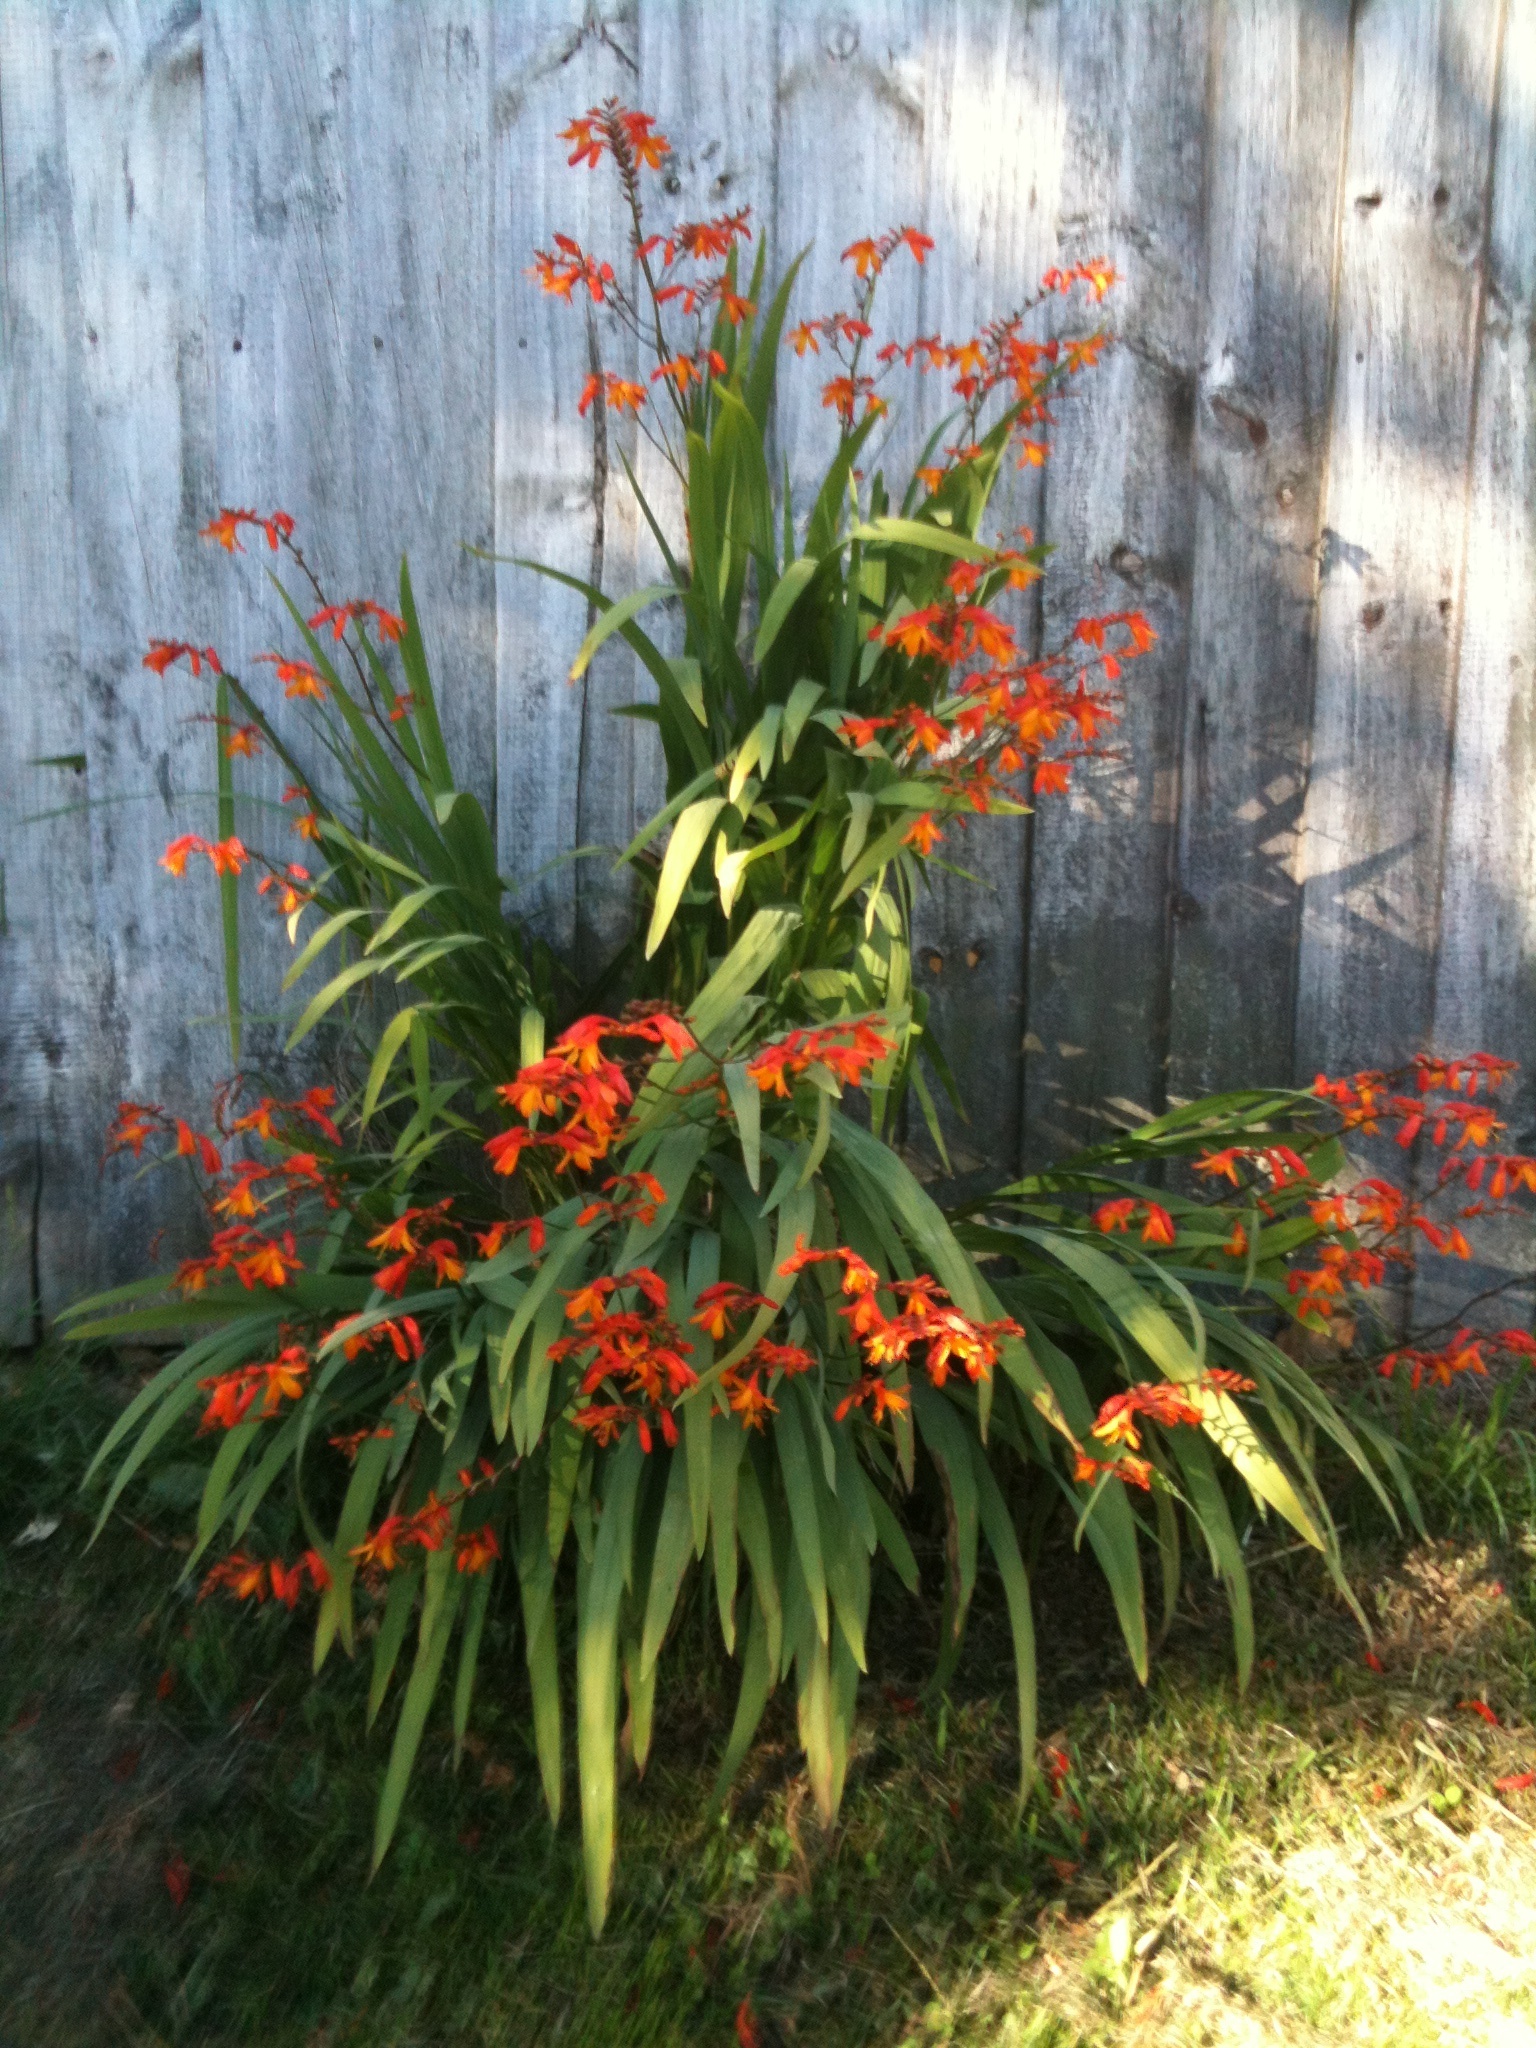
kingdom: Plantae
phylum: Tracheophyta
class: Liliopsida
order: Asparagales
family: Iridaceae
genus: Crocosmia
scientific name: Crocosmia crocosmiiflora
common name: Montbretia
